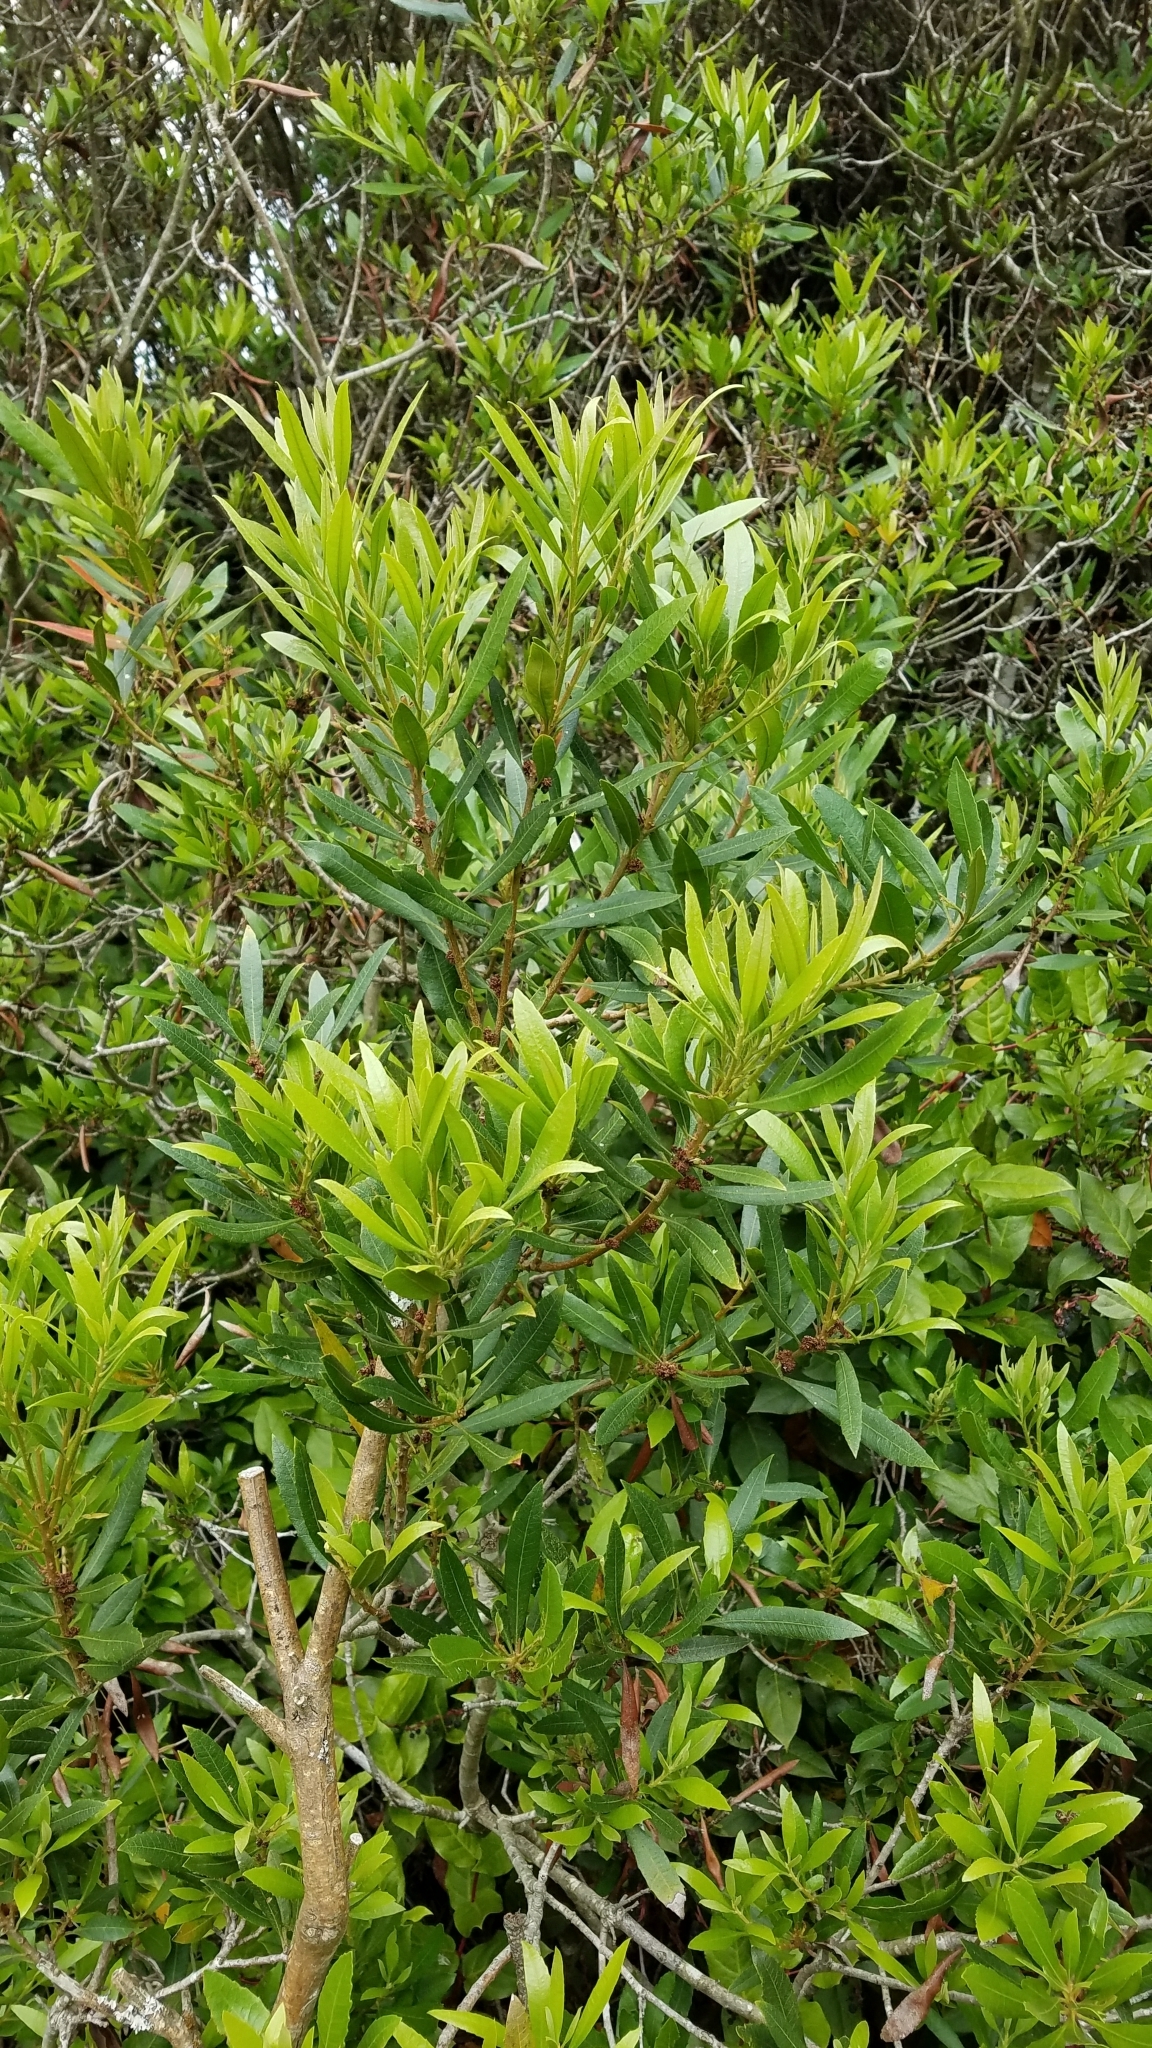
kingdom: Plantae
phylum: Tracheophyta
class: Magnoliopsida
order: Fagales
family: Myricaceae
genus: Morella
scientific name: Morella californica
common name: California wax-myrtle
